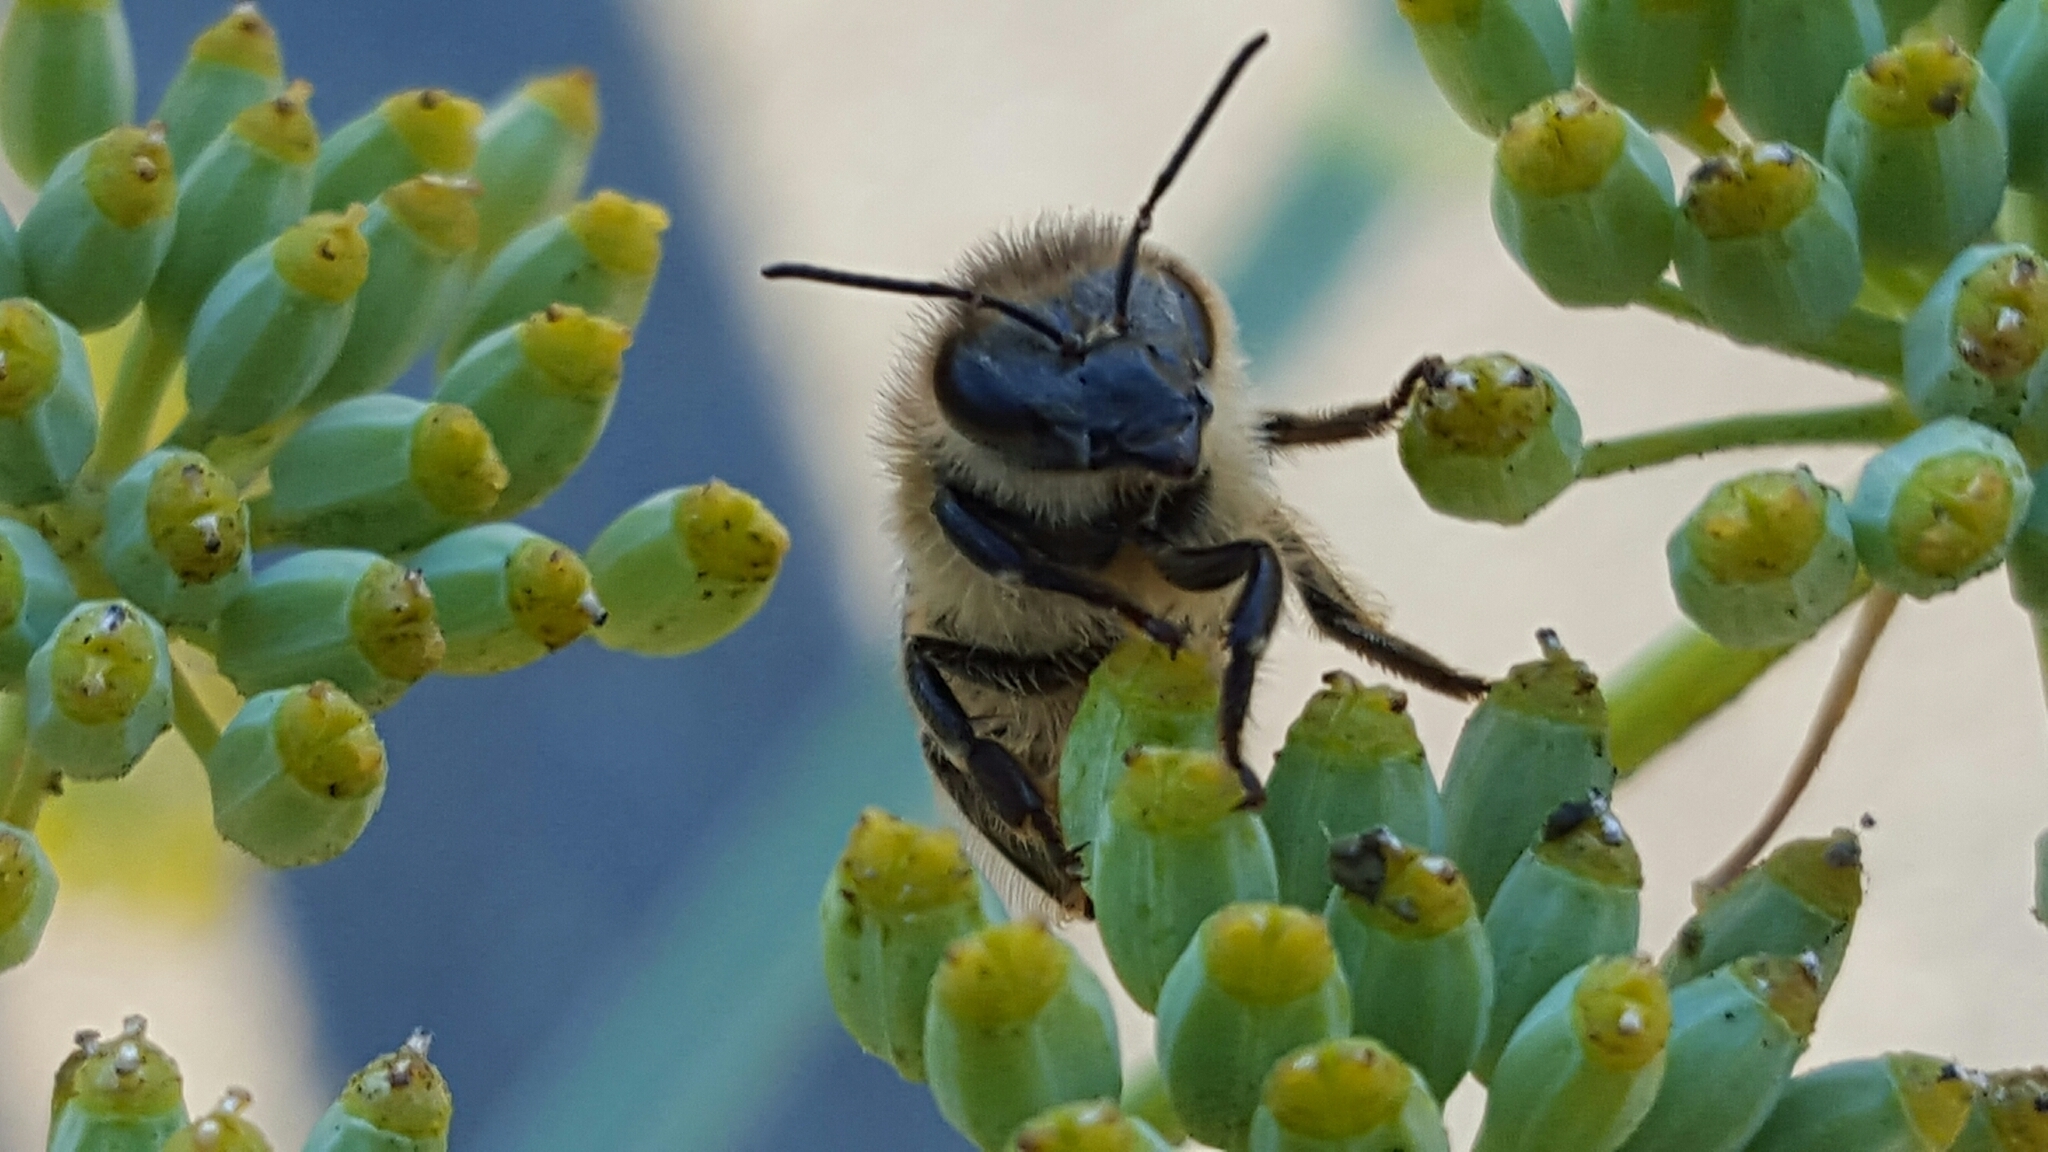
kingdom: Animalia
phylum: Arthropoda
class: Insecta
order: Hymenoptera
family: Apidae
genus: Apis
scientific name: Apis mellifera
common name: Honey bee
